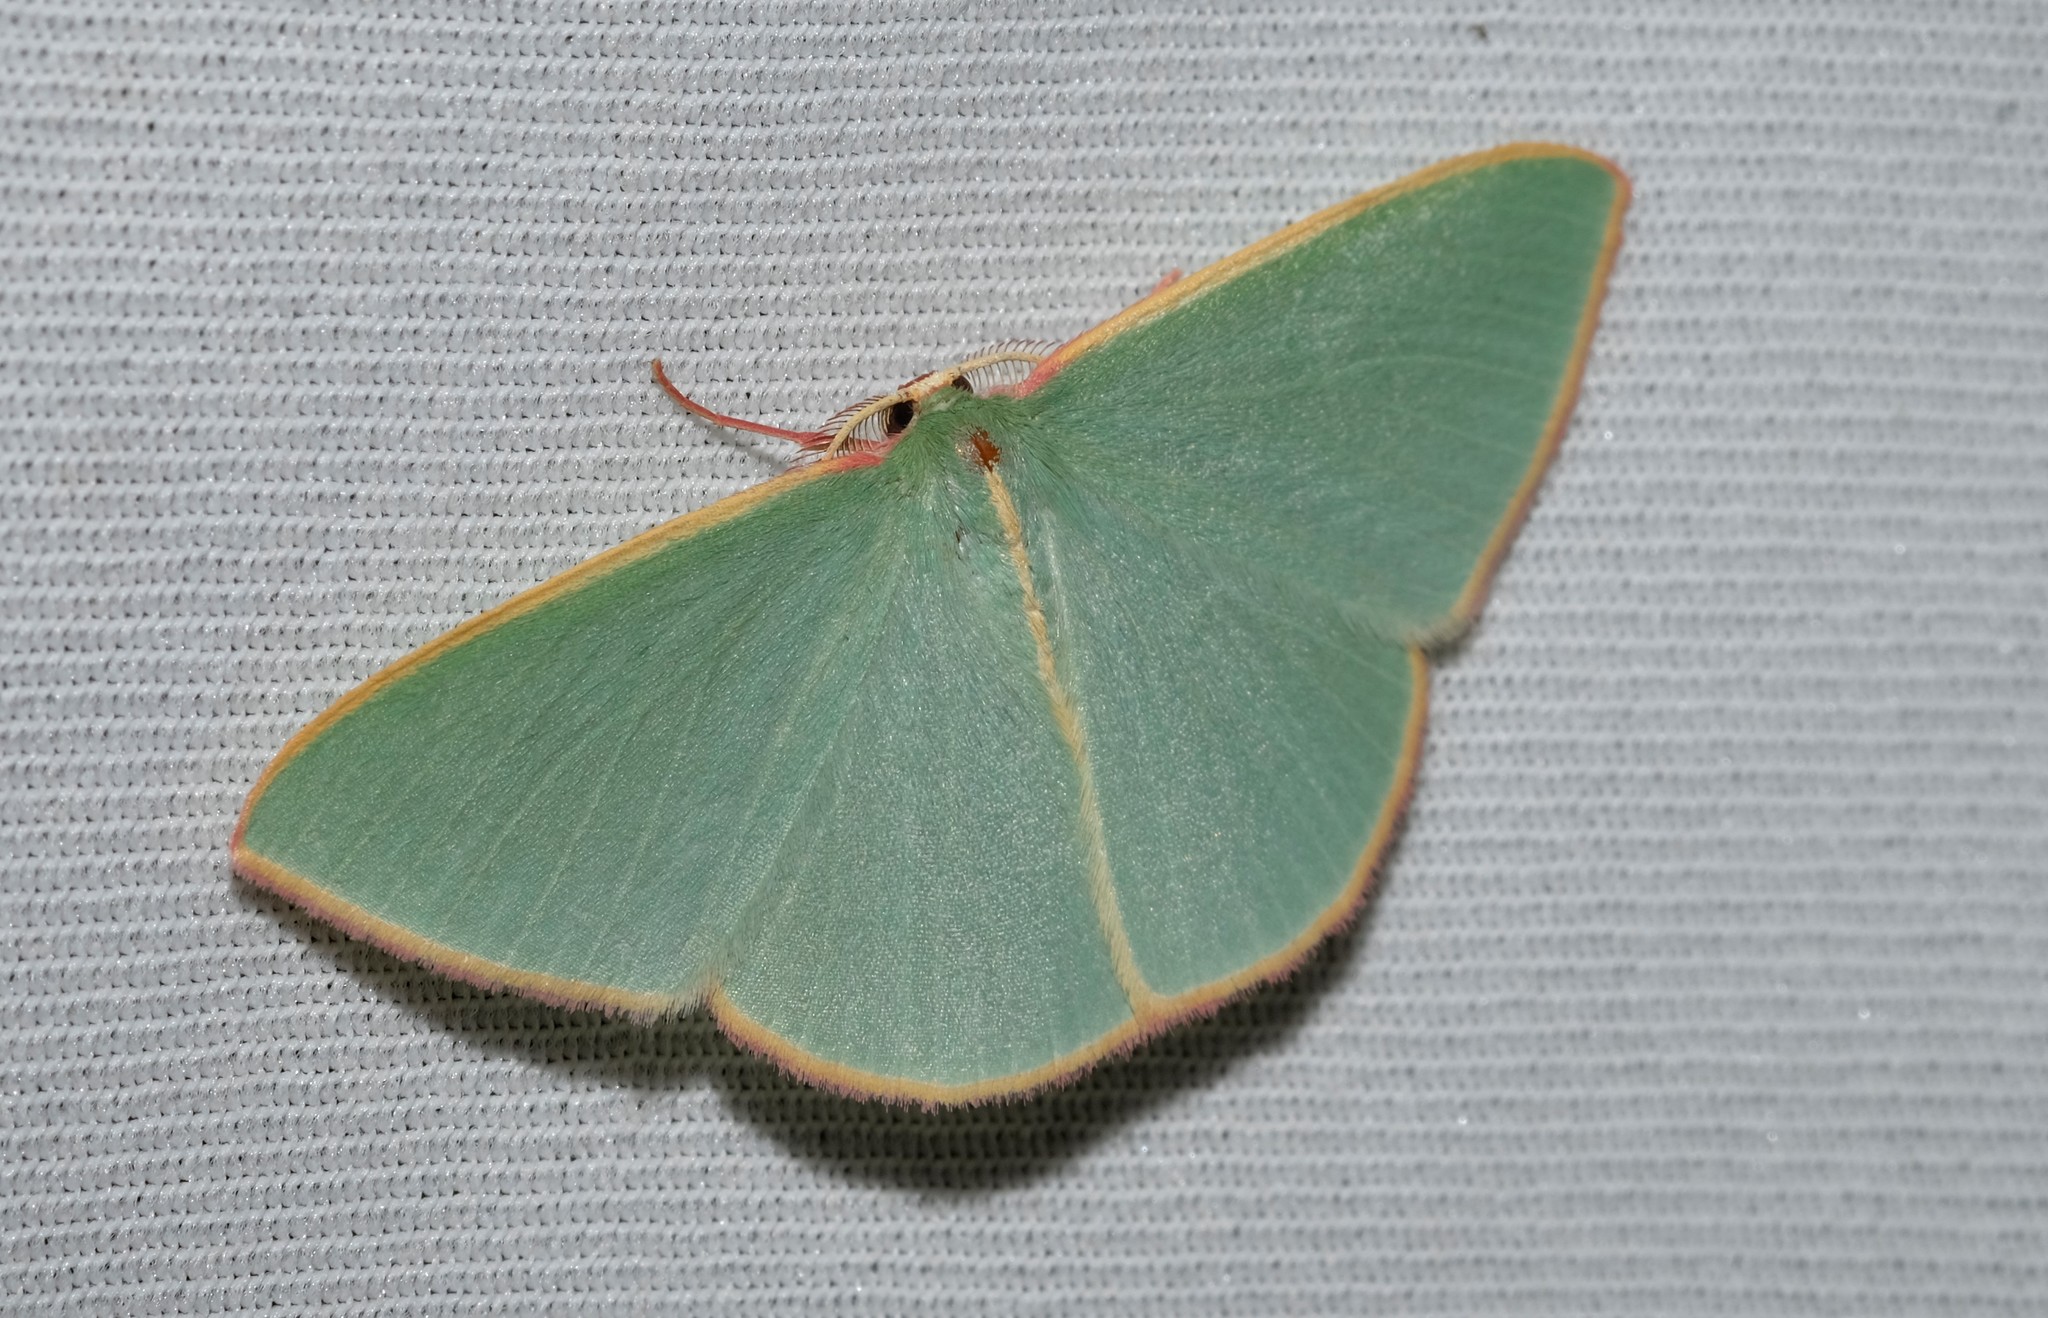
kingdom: Animalia
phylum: Arthropoda
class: Insecta
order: Lepidoptera
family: Geometridae
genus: Chlorocoma
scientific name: Chlorocoma assimilis
